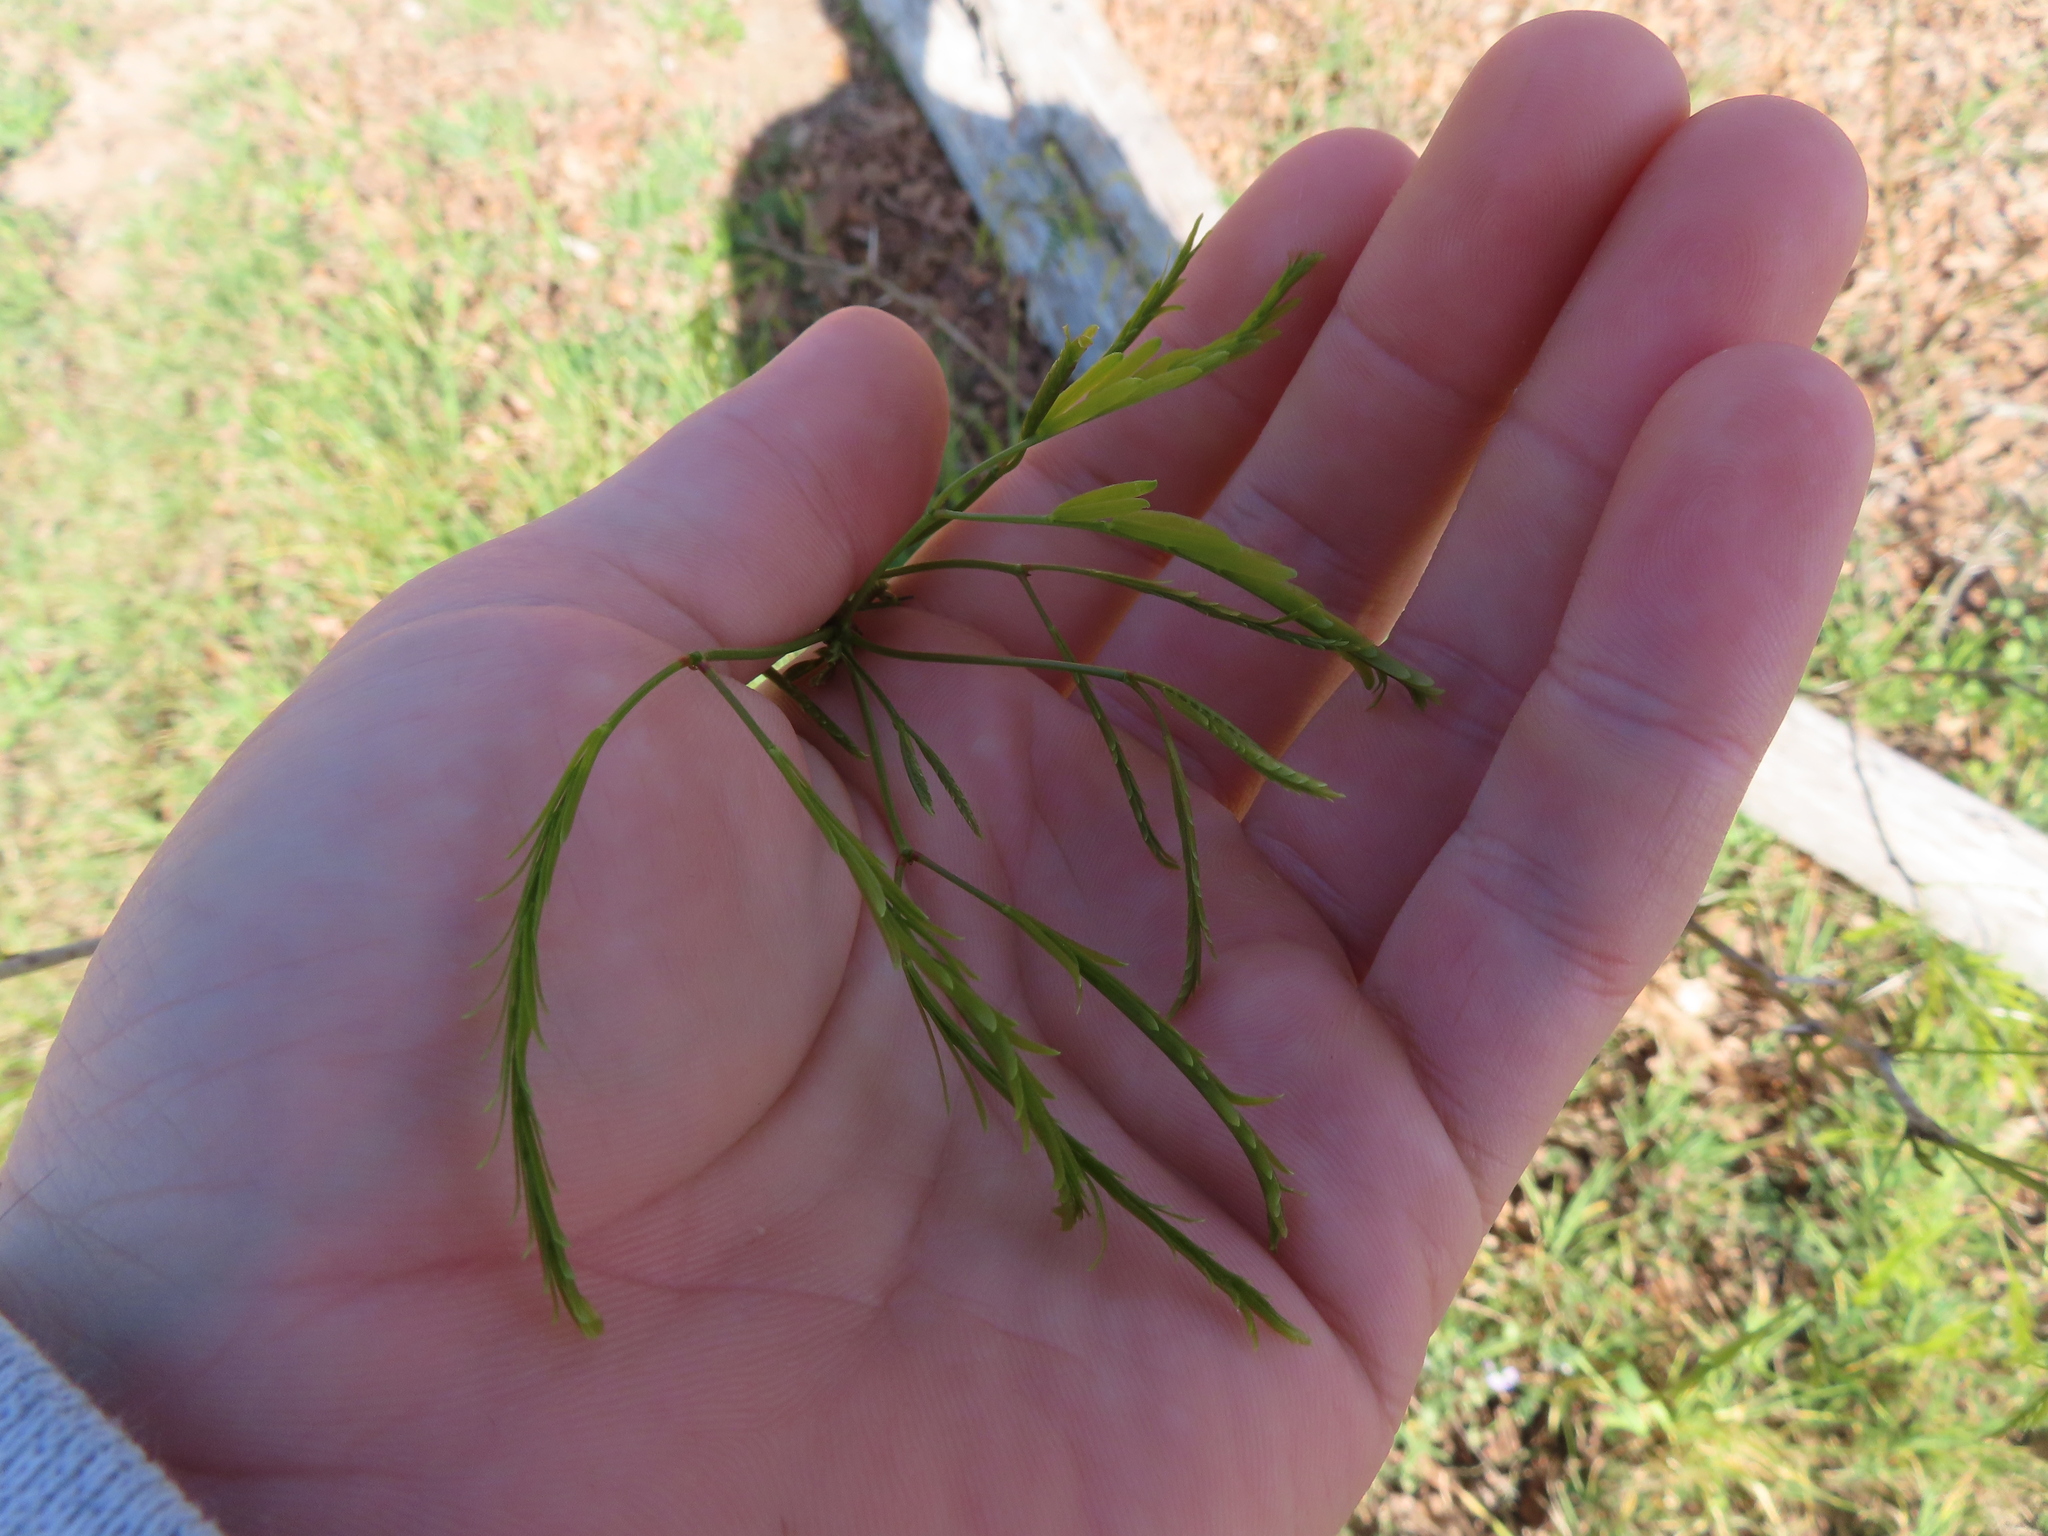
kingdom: Plantae
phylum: Tracheophyta
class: Magnoliopsida
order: Fabales
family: Fabaceae
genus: Prosopis
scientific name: Prosopis glandulosa
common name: Honey mesquite
